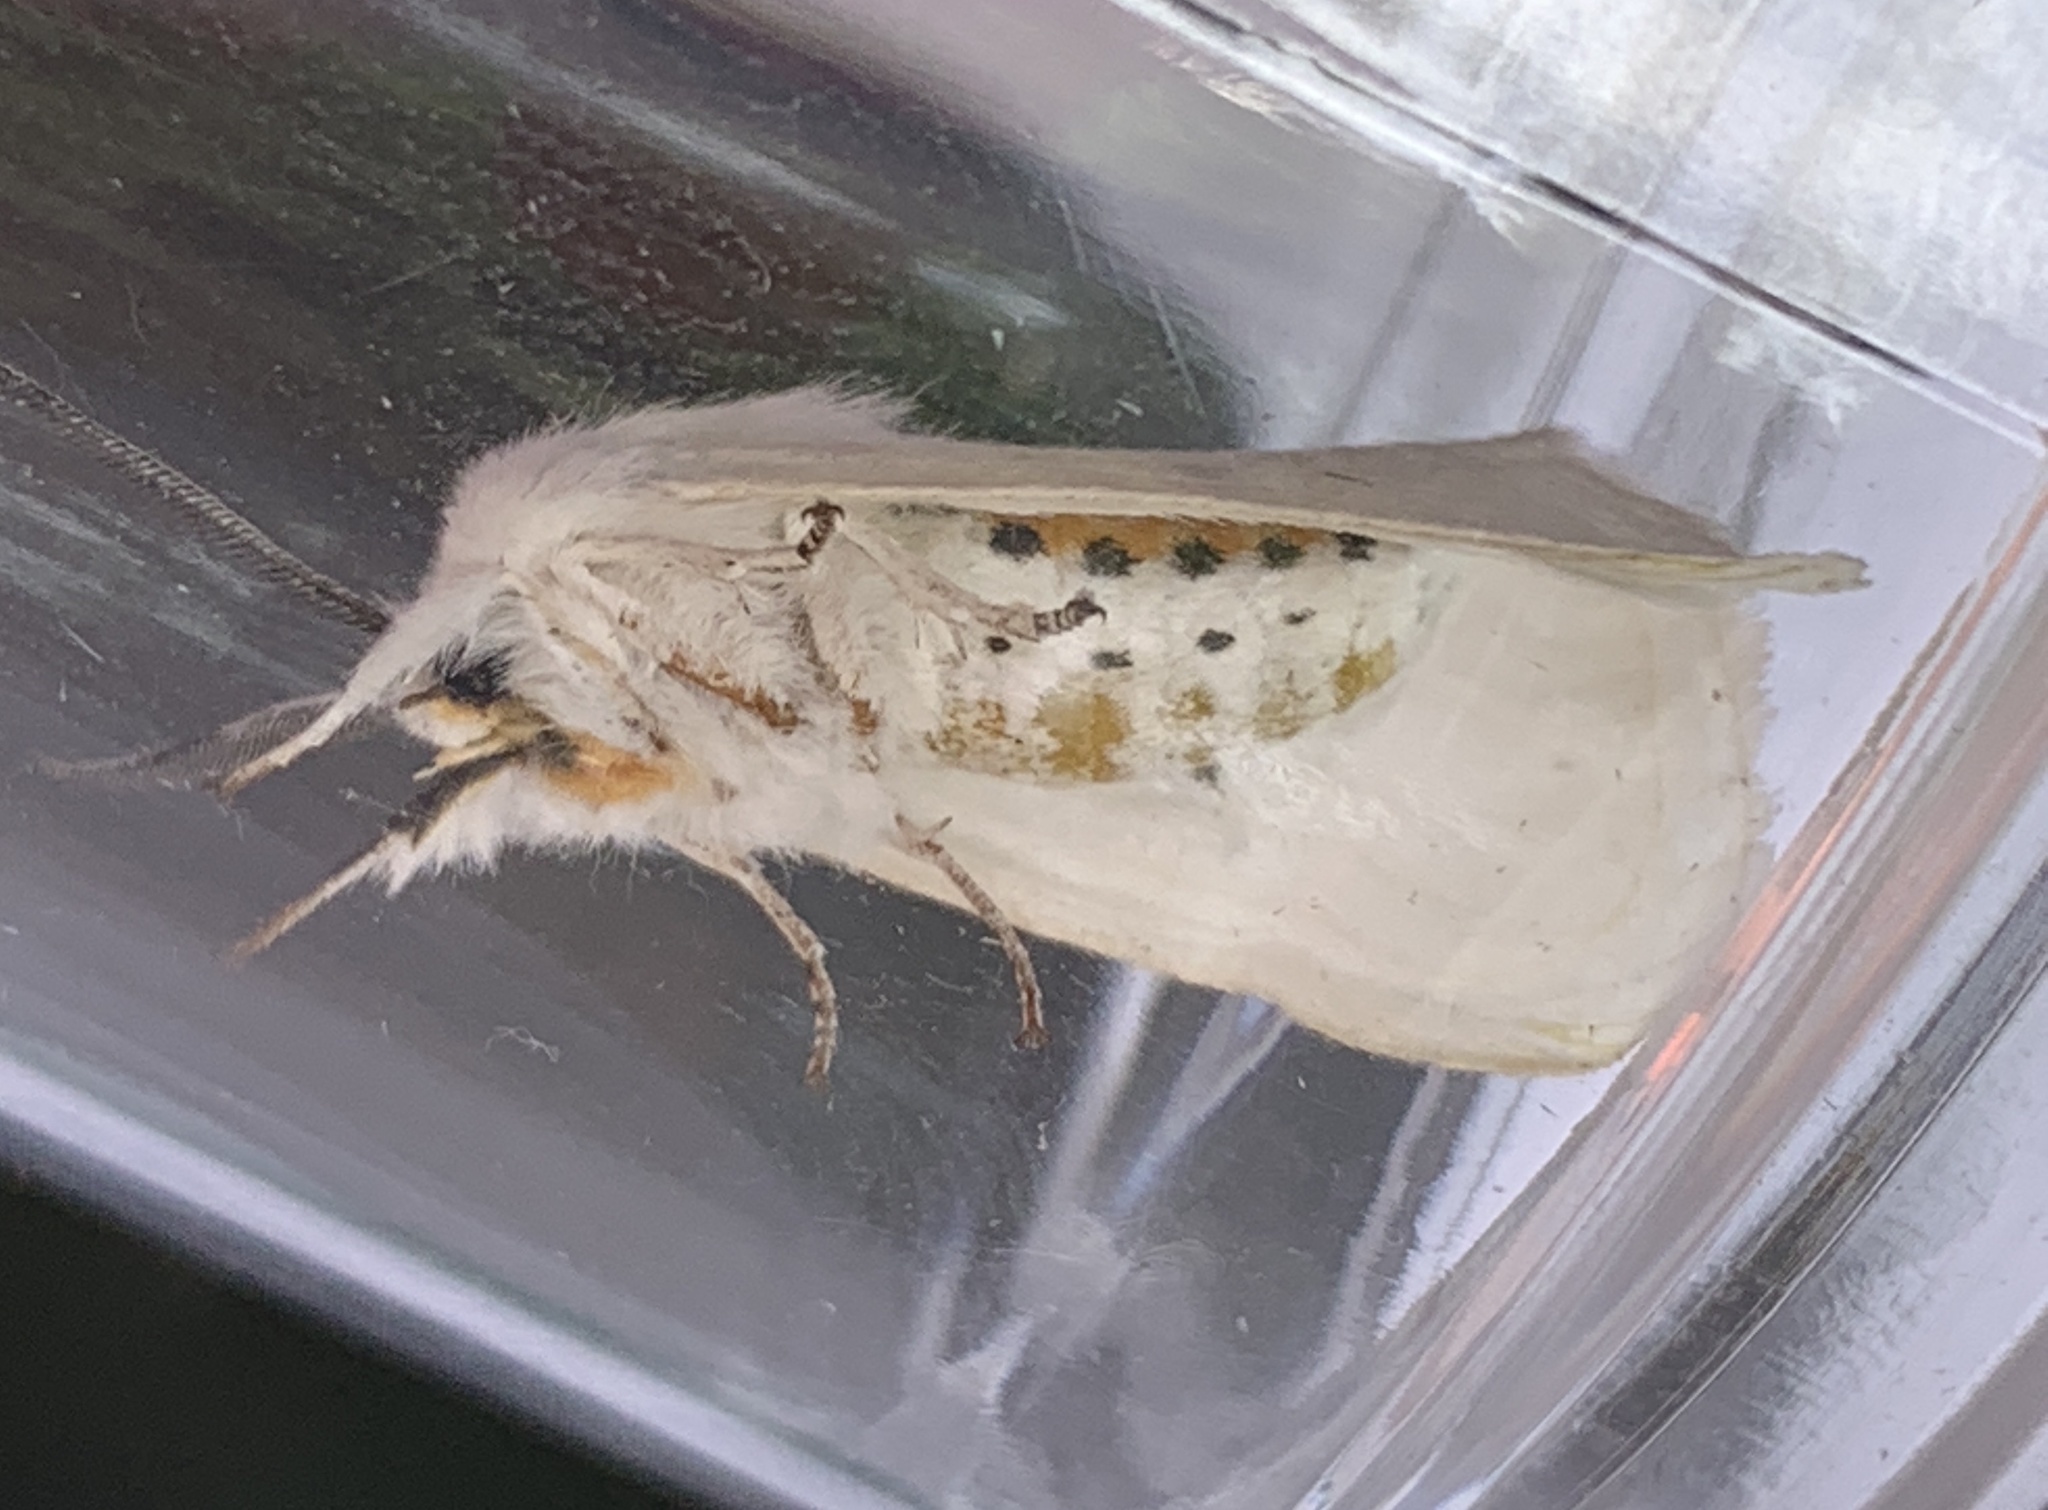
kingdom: Animalia
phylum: Arthropoda
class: Insecta
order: Lepidoptera
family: Erebidae
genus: Spilosoma
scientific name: Spilosoma virginica
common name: Virginia tiger moth
